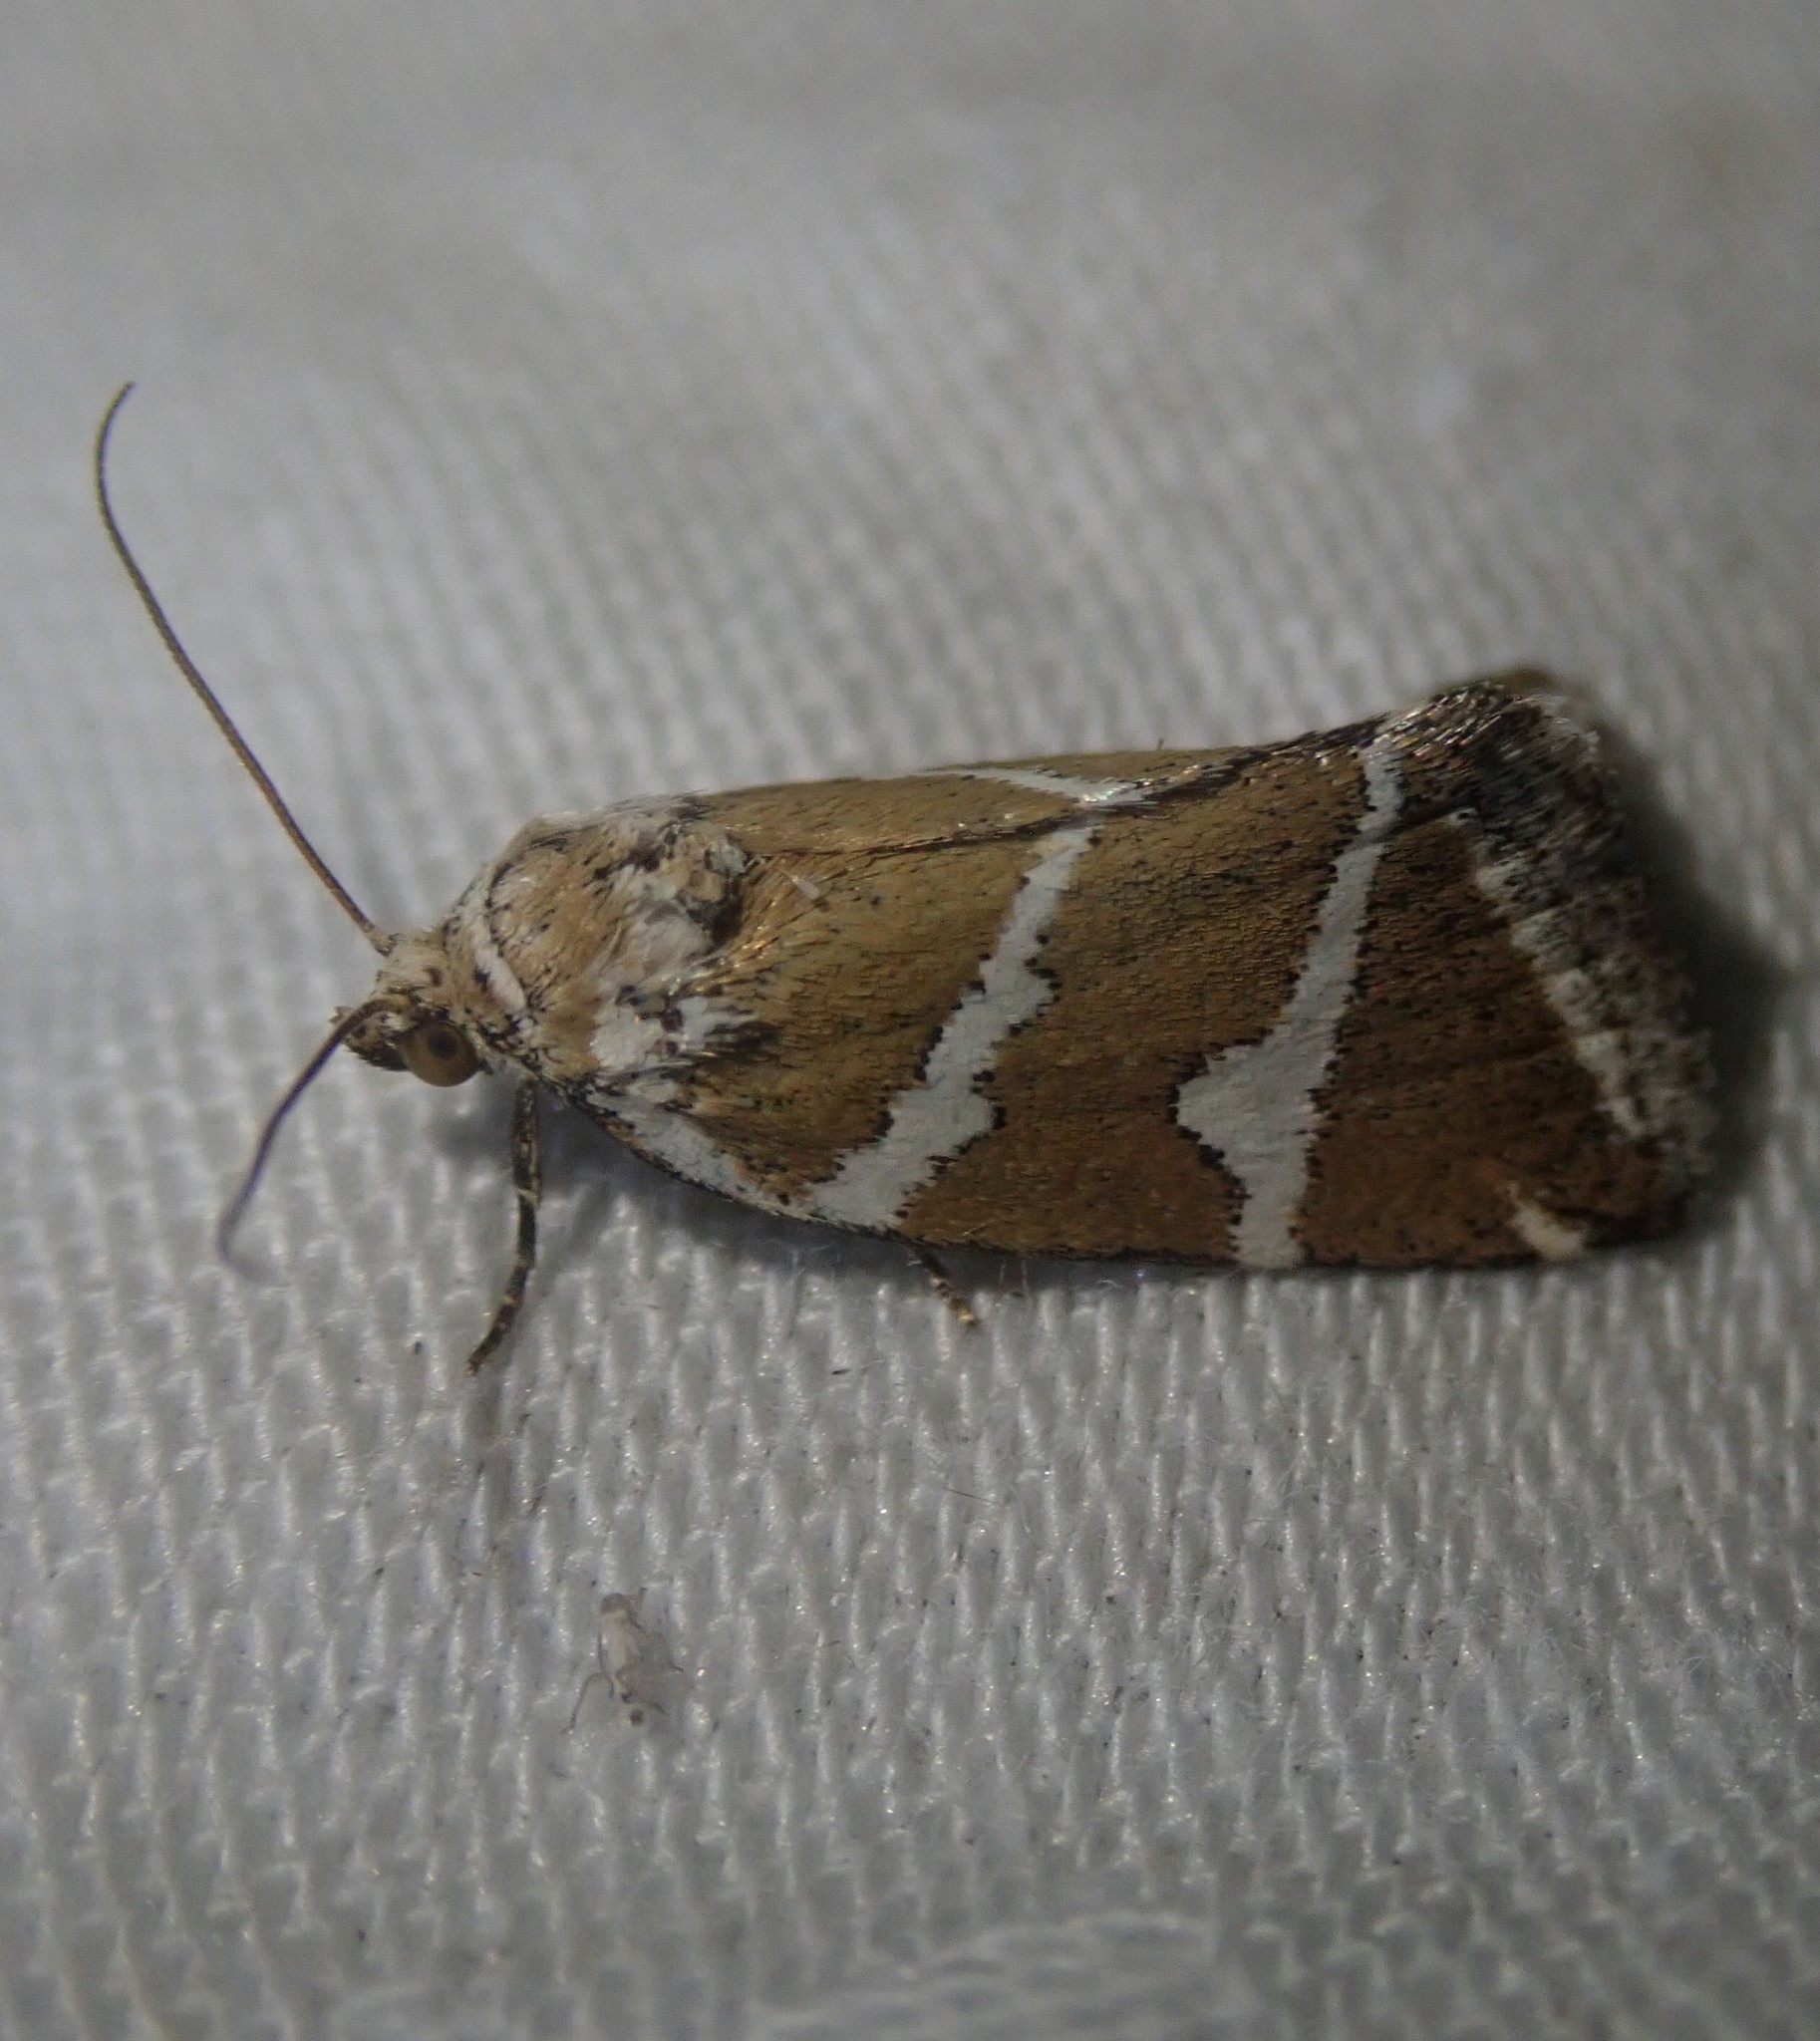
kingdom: Animalia
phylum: Arthropoda
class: Insecta
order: Lepidoptera
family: Noctuidae
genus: Deltote
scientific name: Deltote bankiana
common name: Silver barred
